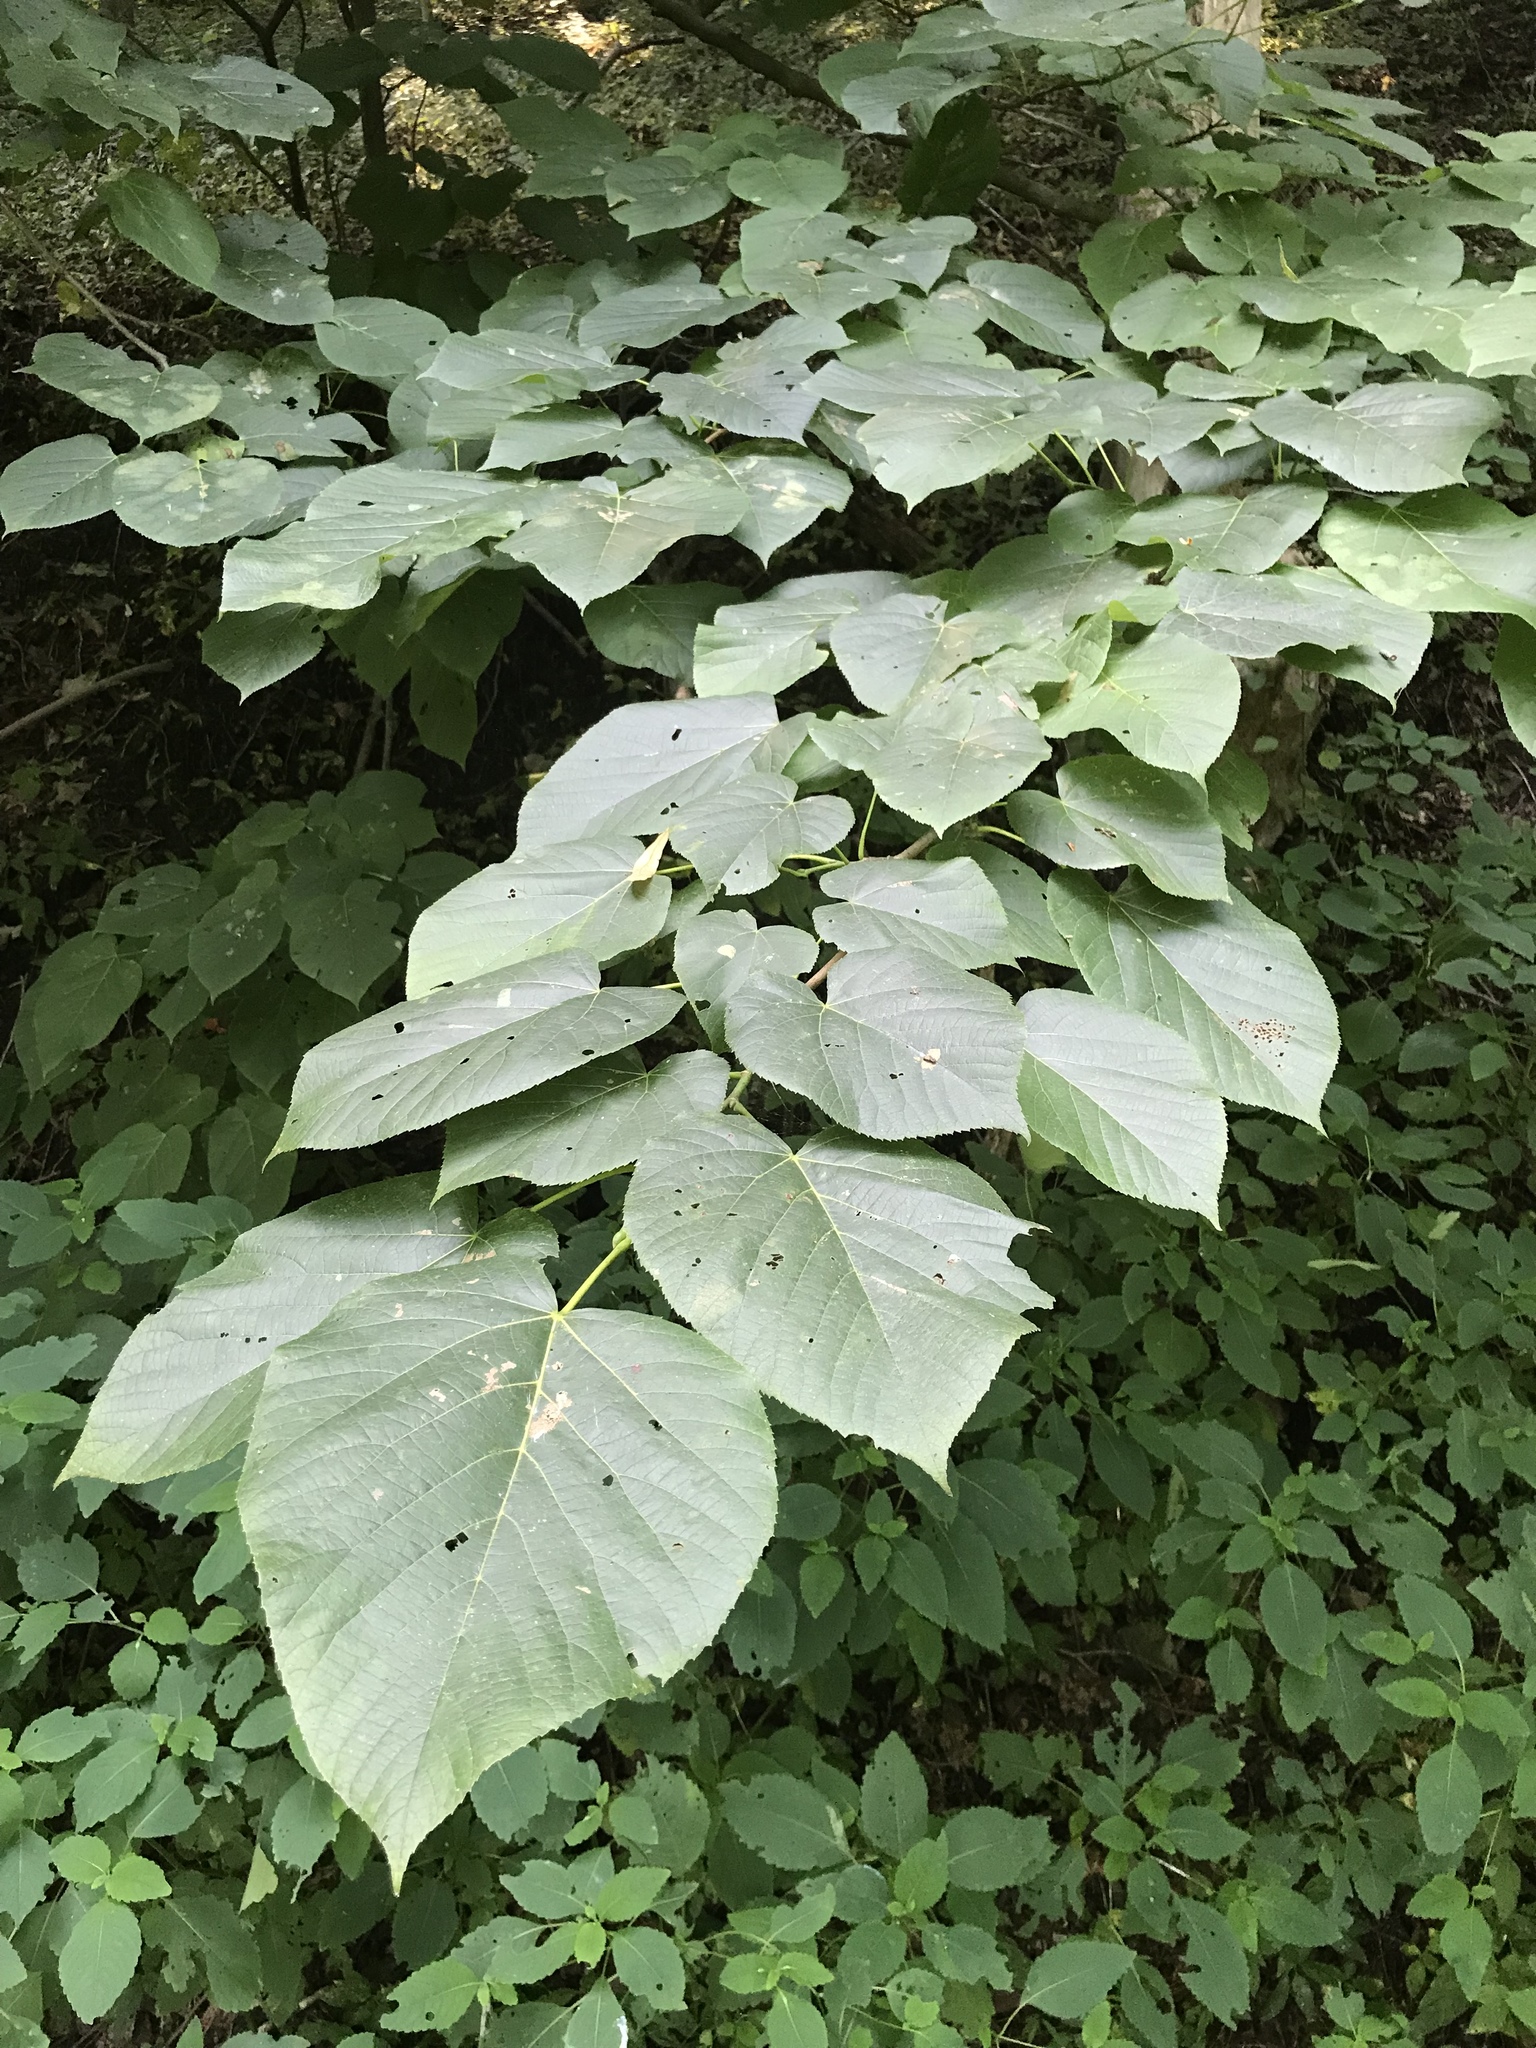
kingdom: Plantae
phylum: Tracheophyta
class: Magnoliopsida
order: Malvales
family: Malvaceae
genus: Tilia
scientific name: Tilia americana
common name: Basswood
